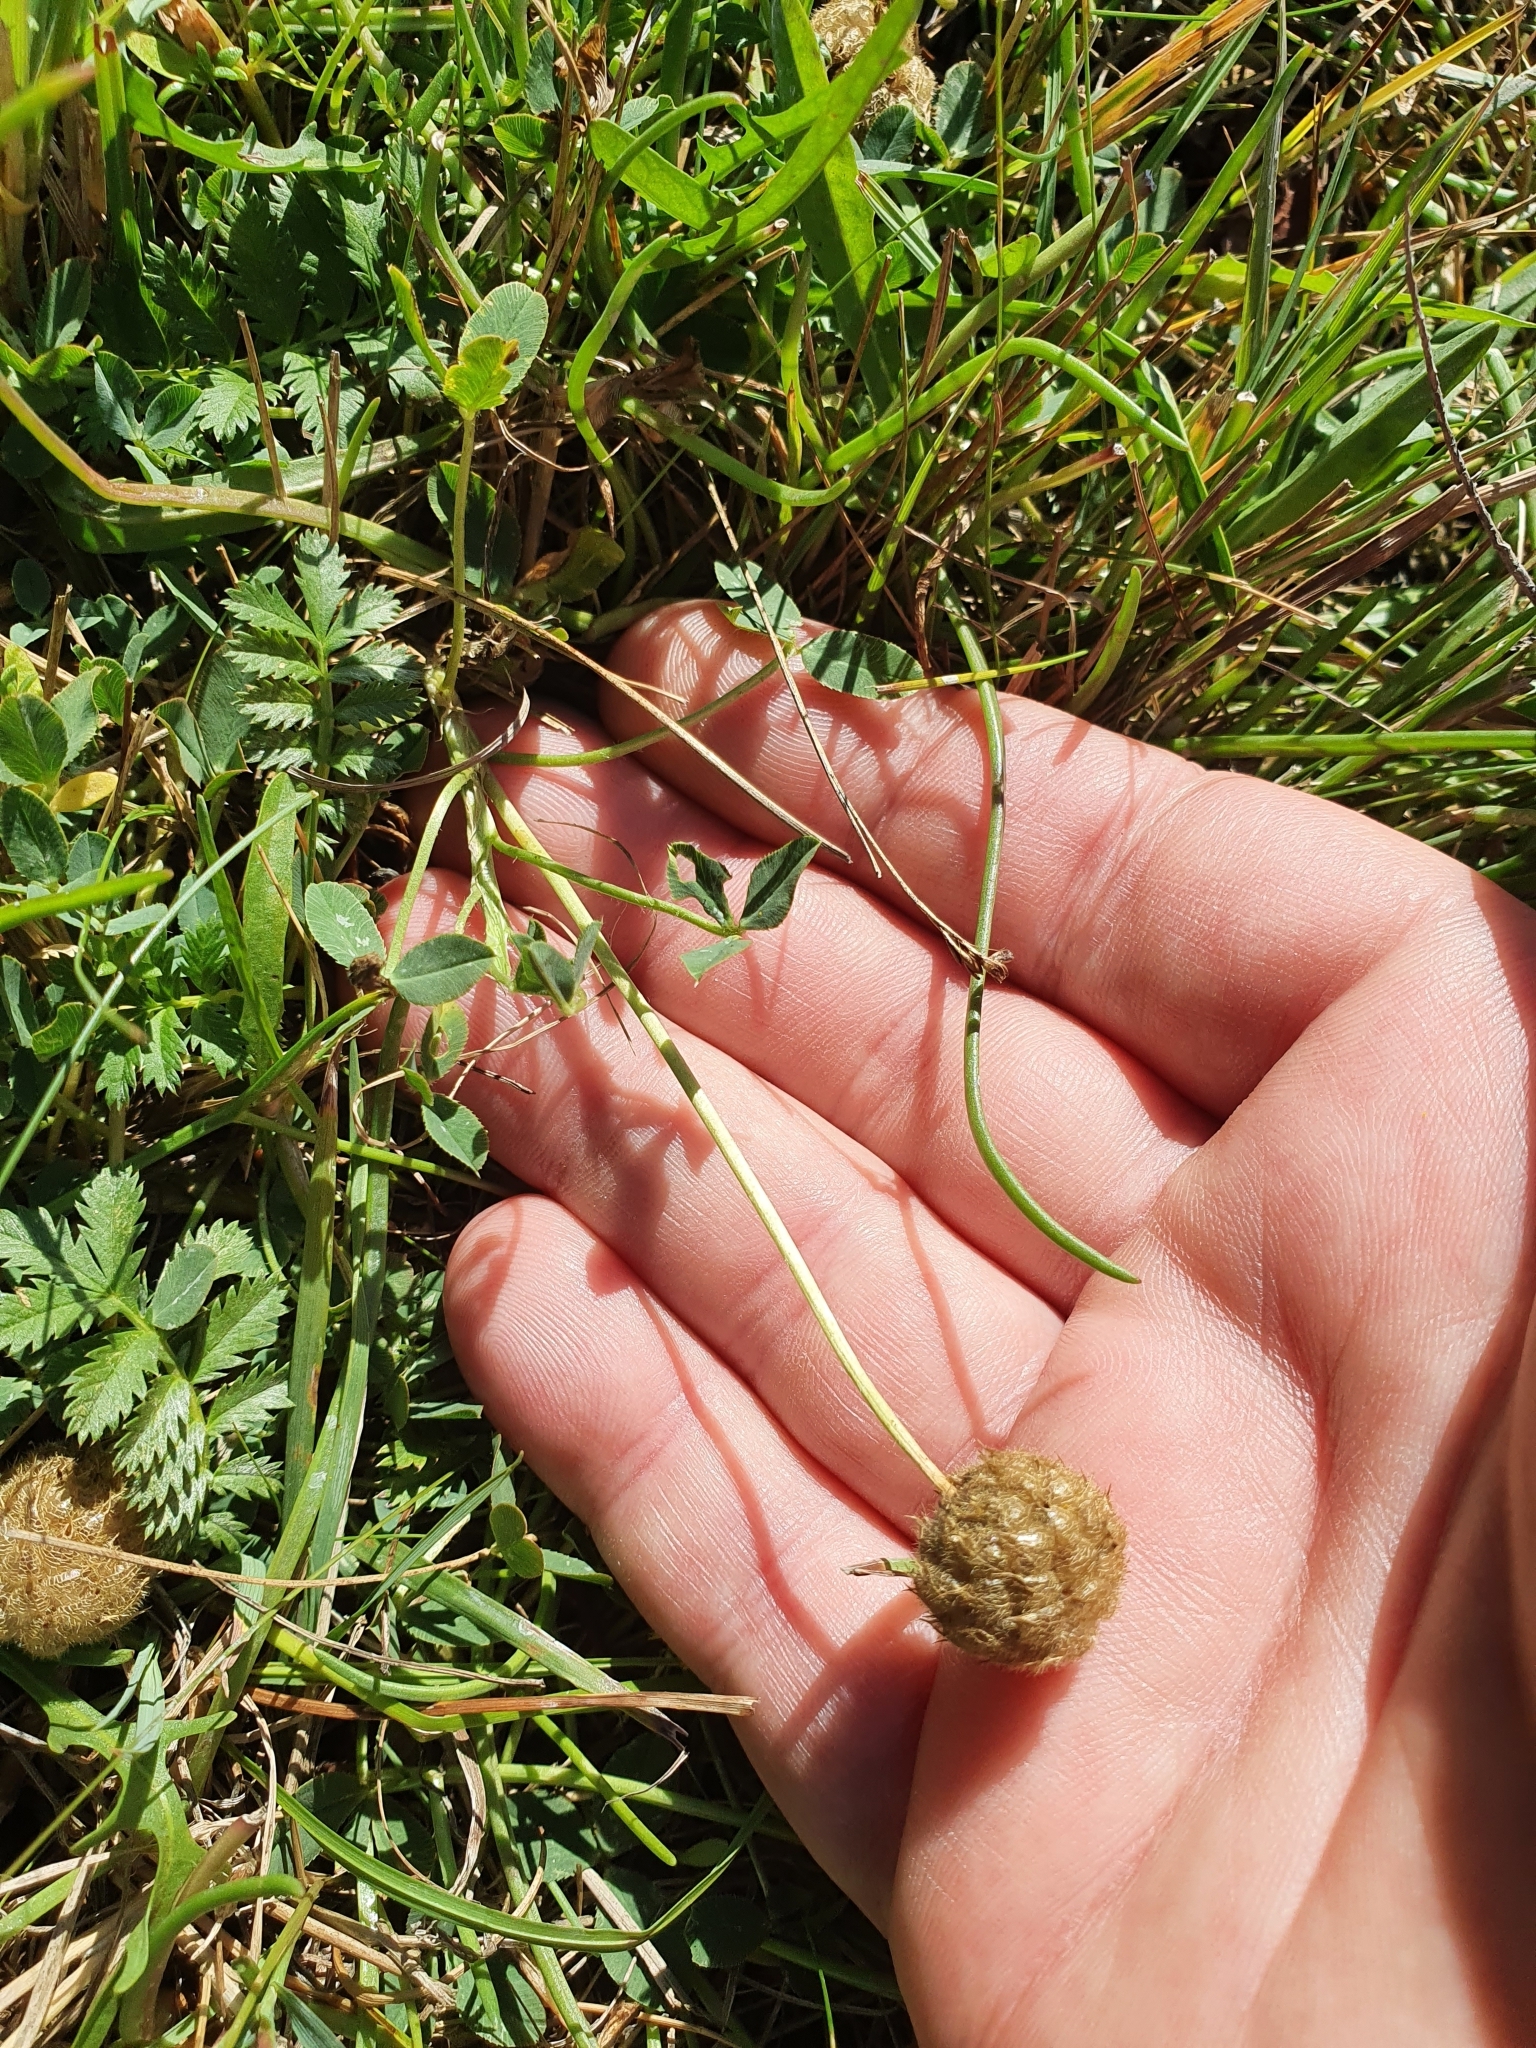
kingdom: Plantae
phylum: Tracheophyta
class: Magnoliopsida
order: Fabales
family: Fabaceae
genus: Trifolium
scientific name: Trifolium fragiferum
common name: Strawberry clover
